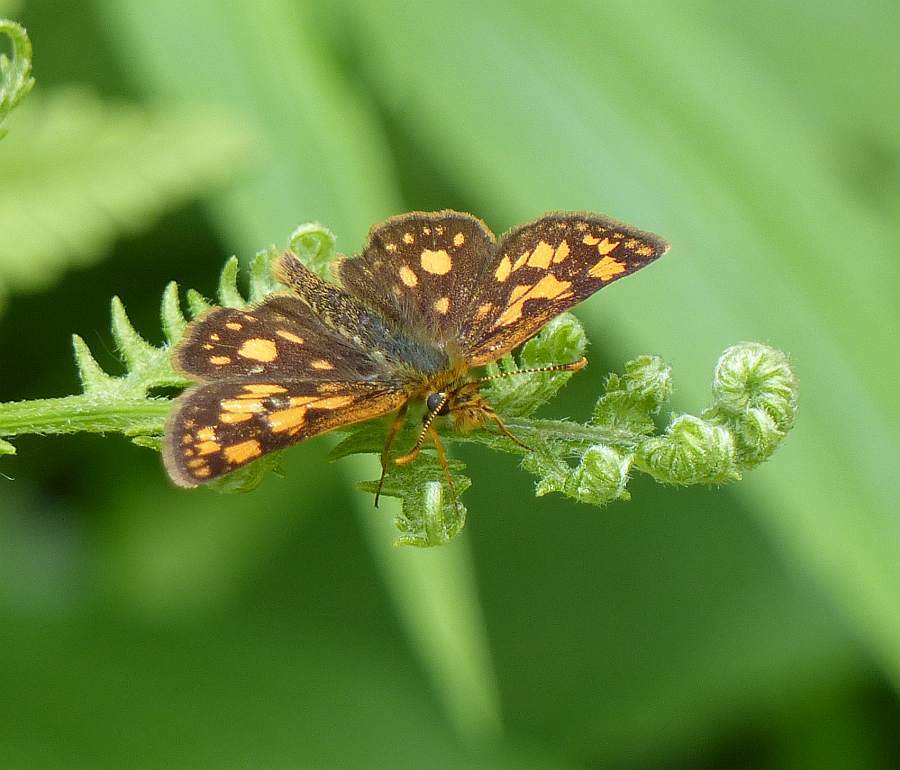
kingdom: Animalia
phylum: Arthropoda
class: Insecta
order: Lepidoptera
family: Hesperiidae
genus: Carterocephalus
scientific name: Carterocephalus mandan
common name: Arctic skipperling
